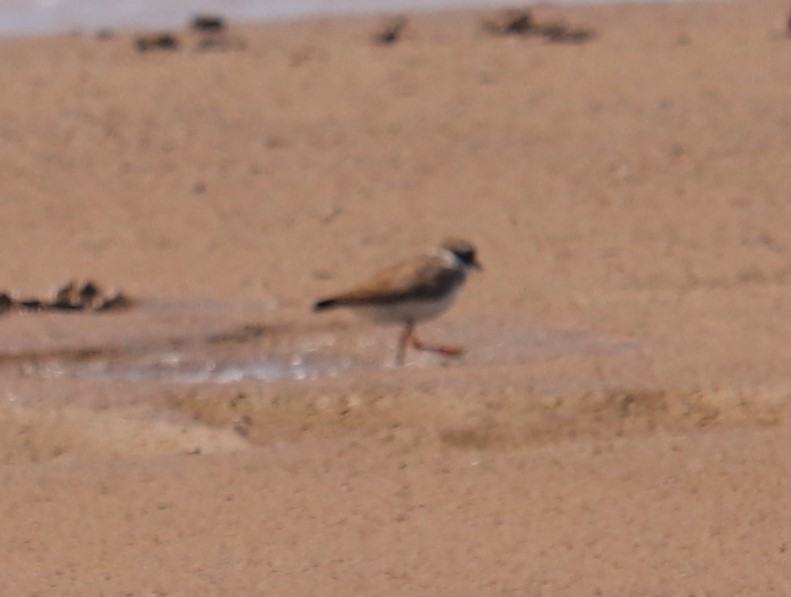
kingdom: Animalia
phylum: Chordata
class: Aves
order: Charadriiformes
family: Charadriidae
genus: Charadrius
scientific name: Charadrius hiaticula
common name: Common ringed plover
